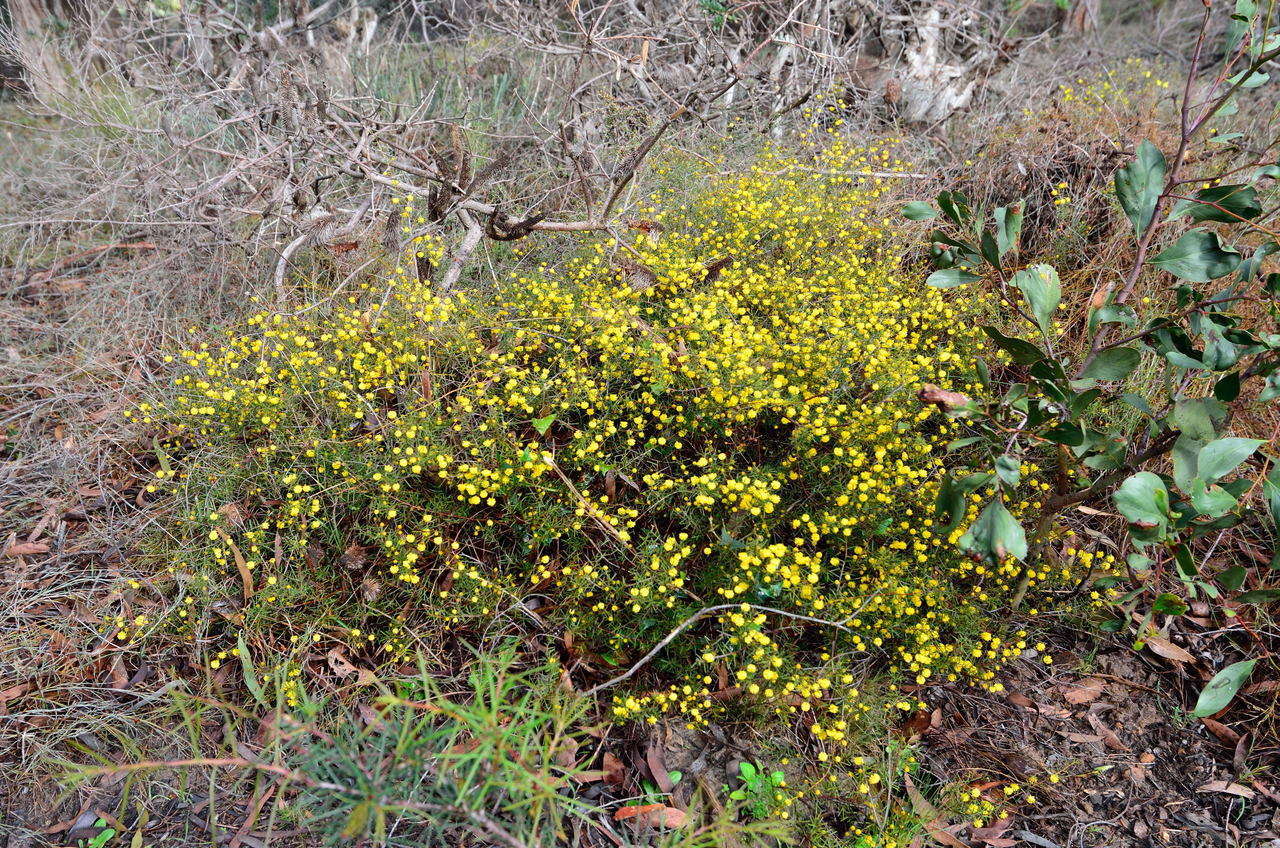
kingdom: Plantae
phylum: Tracheophyta
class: Magnoliopsida
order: Fabales
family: Fabaceae
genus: Acacia
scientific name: Acacia brownii
